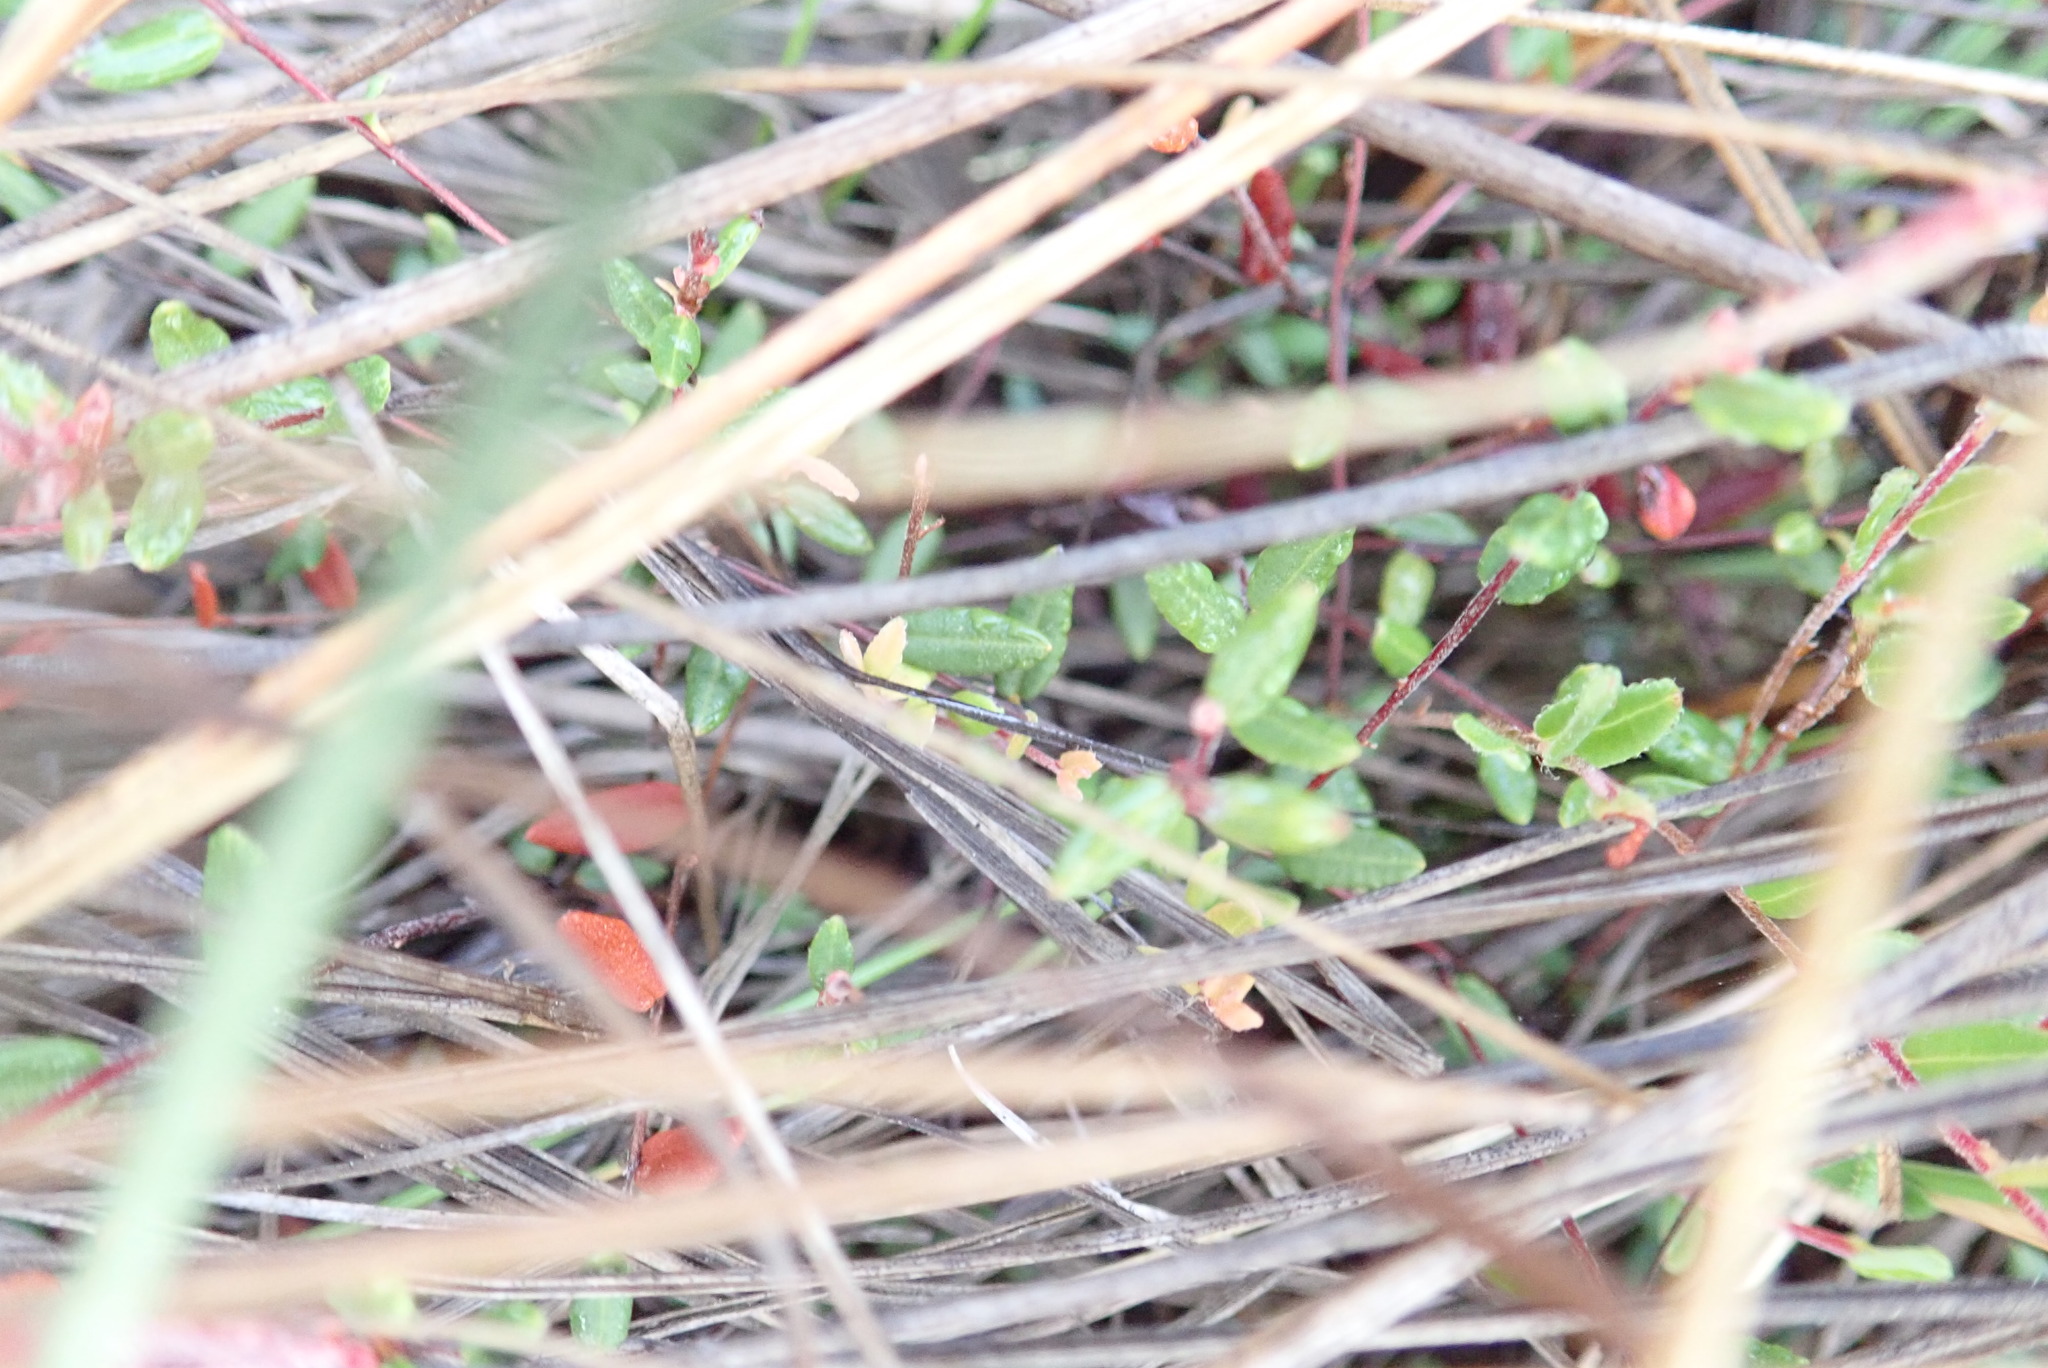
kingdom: Plantae
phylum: Tracheophyta
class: Magnoliopsida
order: Ericales
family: Ericaceae
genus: Vaccinium
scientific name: Vaccinium oxycoccos
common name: Cranberry
